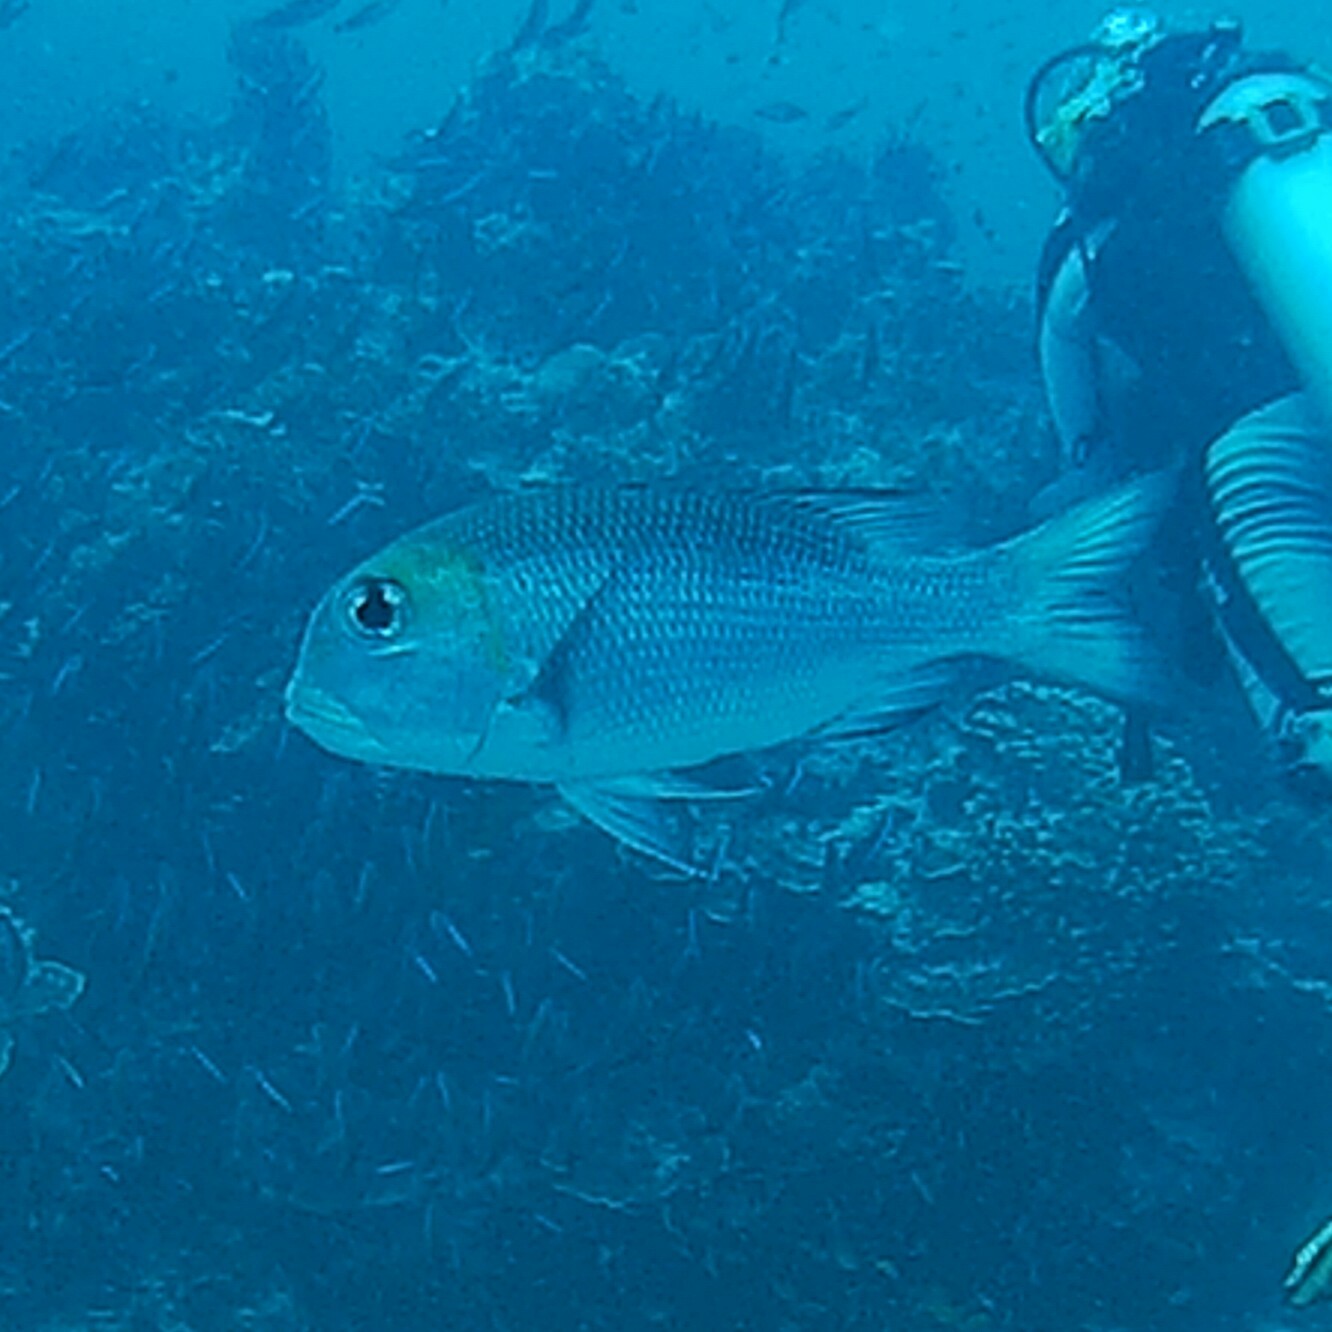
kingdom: Animalia
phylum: Chordata
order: Perciformes
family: Lethrinidae
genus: Monotaxis
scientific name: Monotaxis grandoculis
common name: Bigeye emperor
